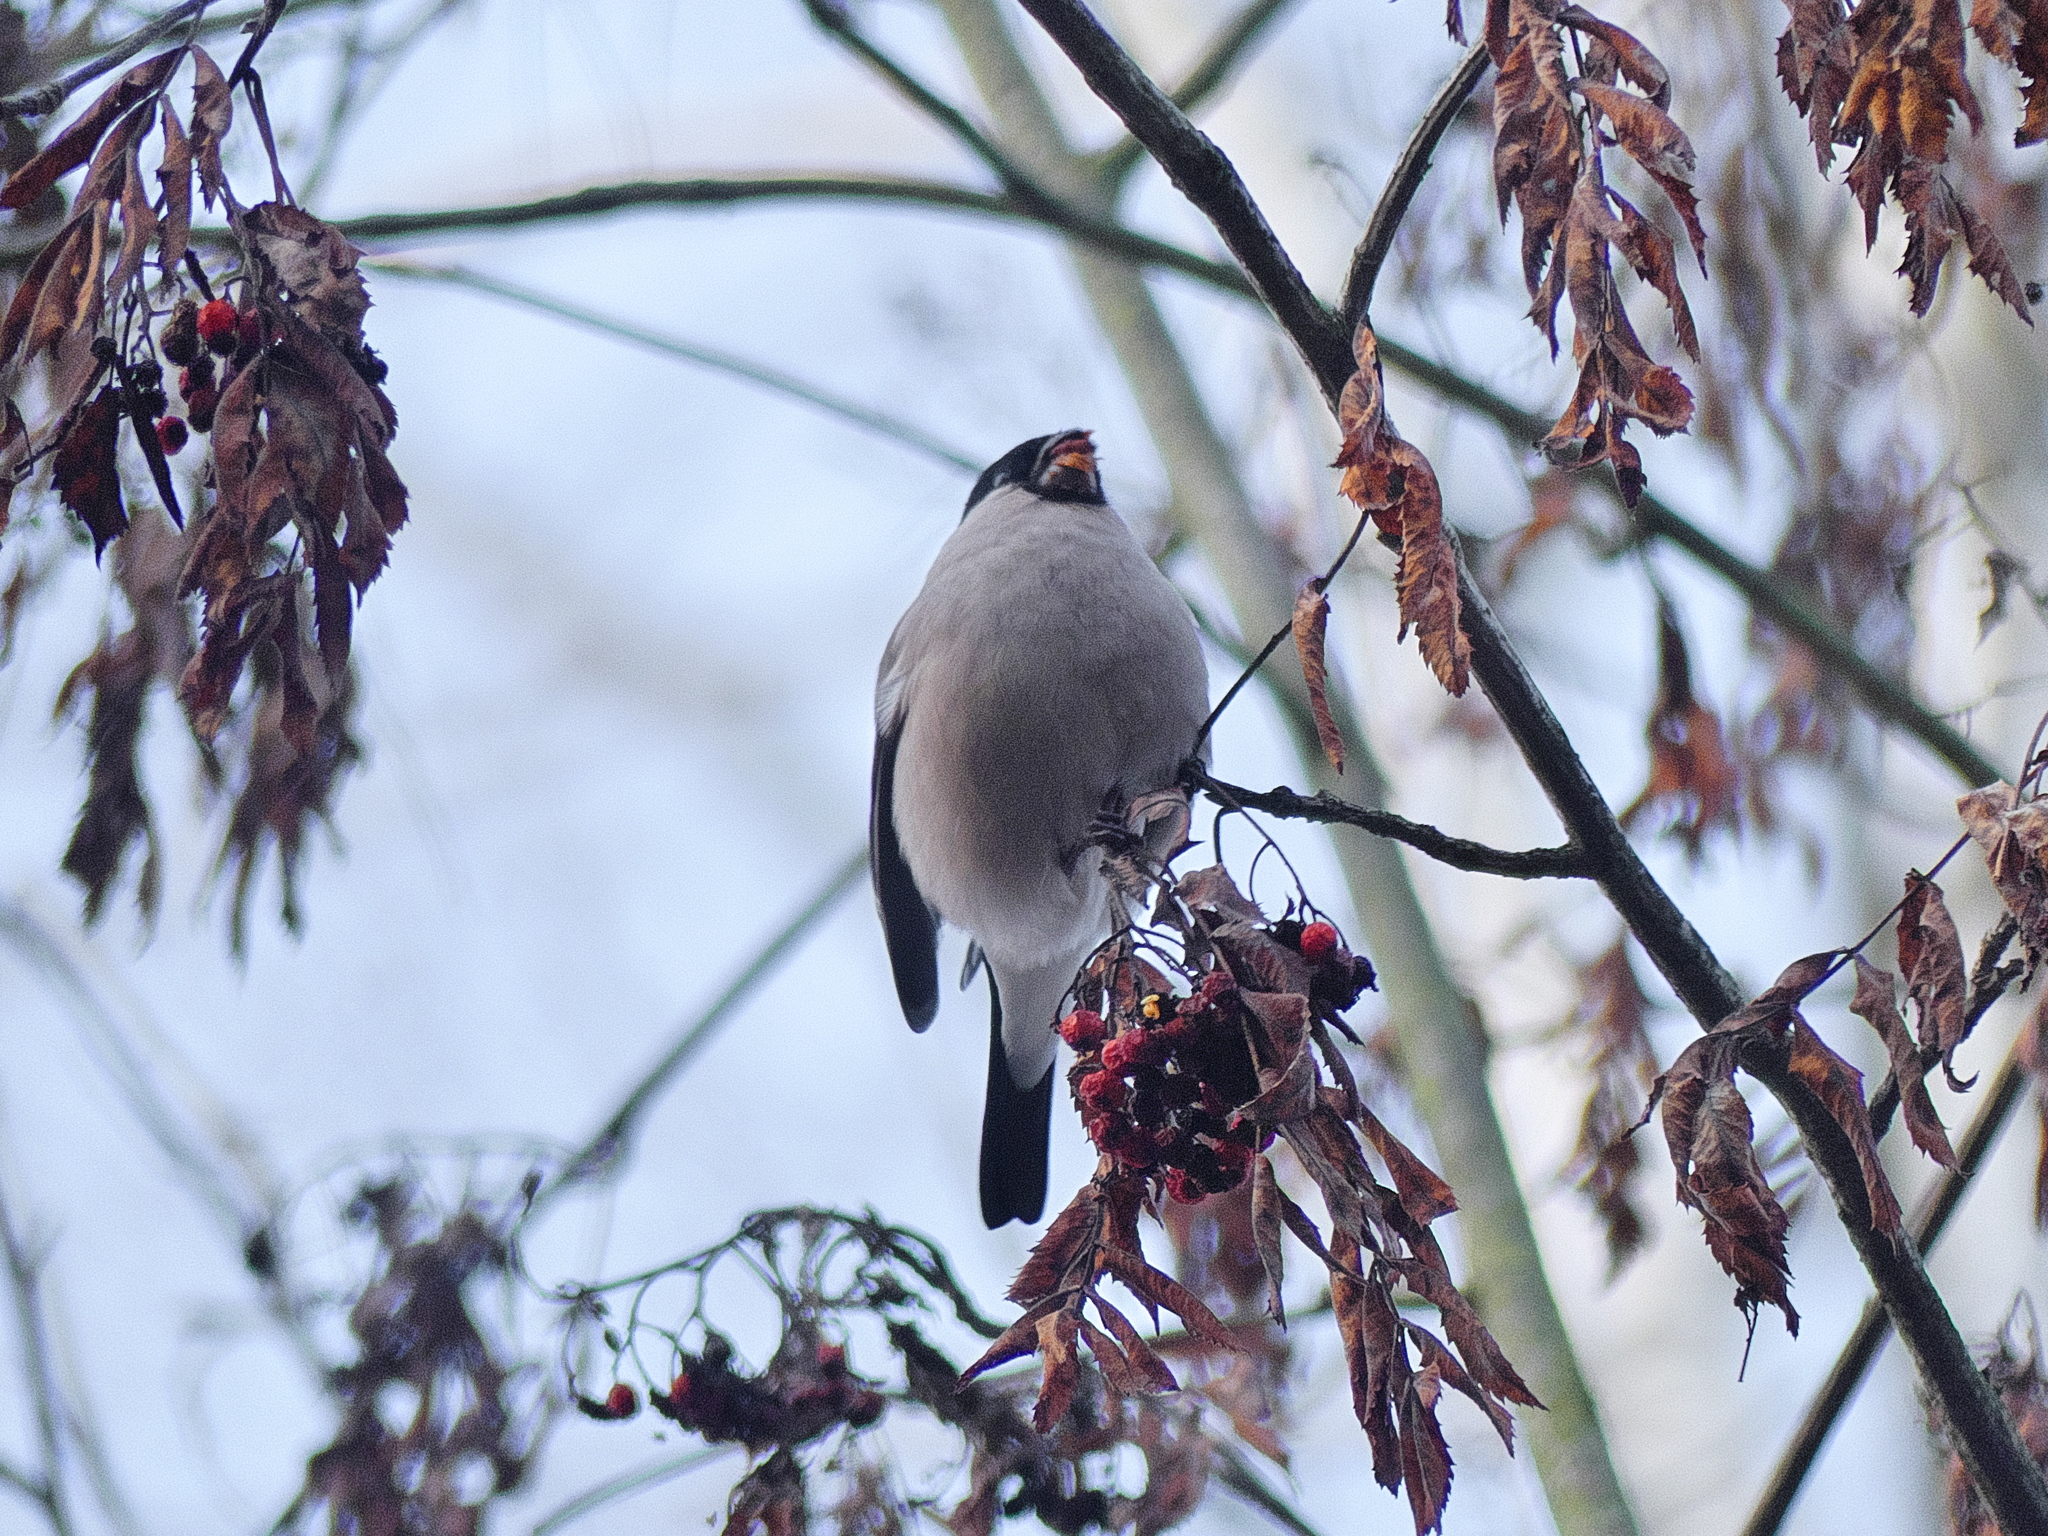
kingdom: Animalia
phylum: Chordata
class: Aves
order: Passeriformes
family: Fringillidae
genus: Pyrrhula
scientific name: Pyrrhula pyrrhula
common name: Eurasian bullfinch
